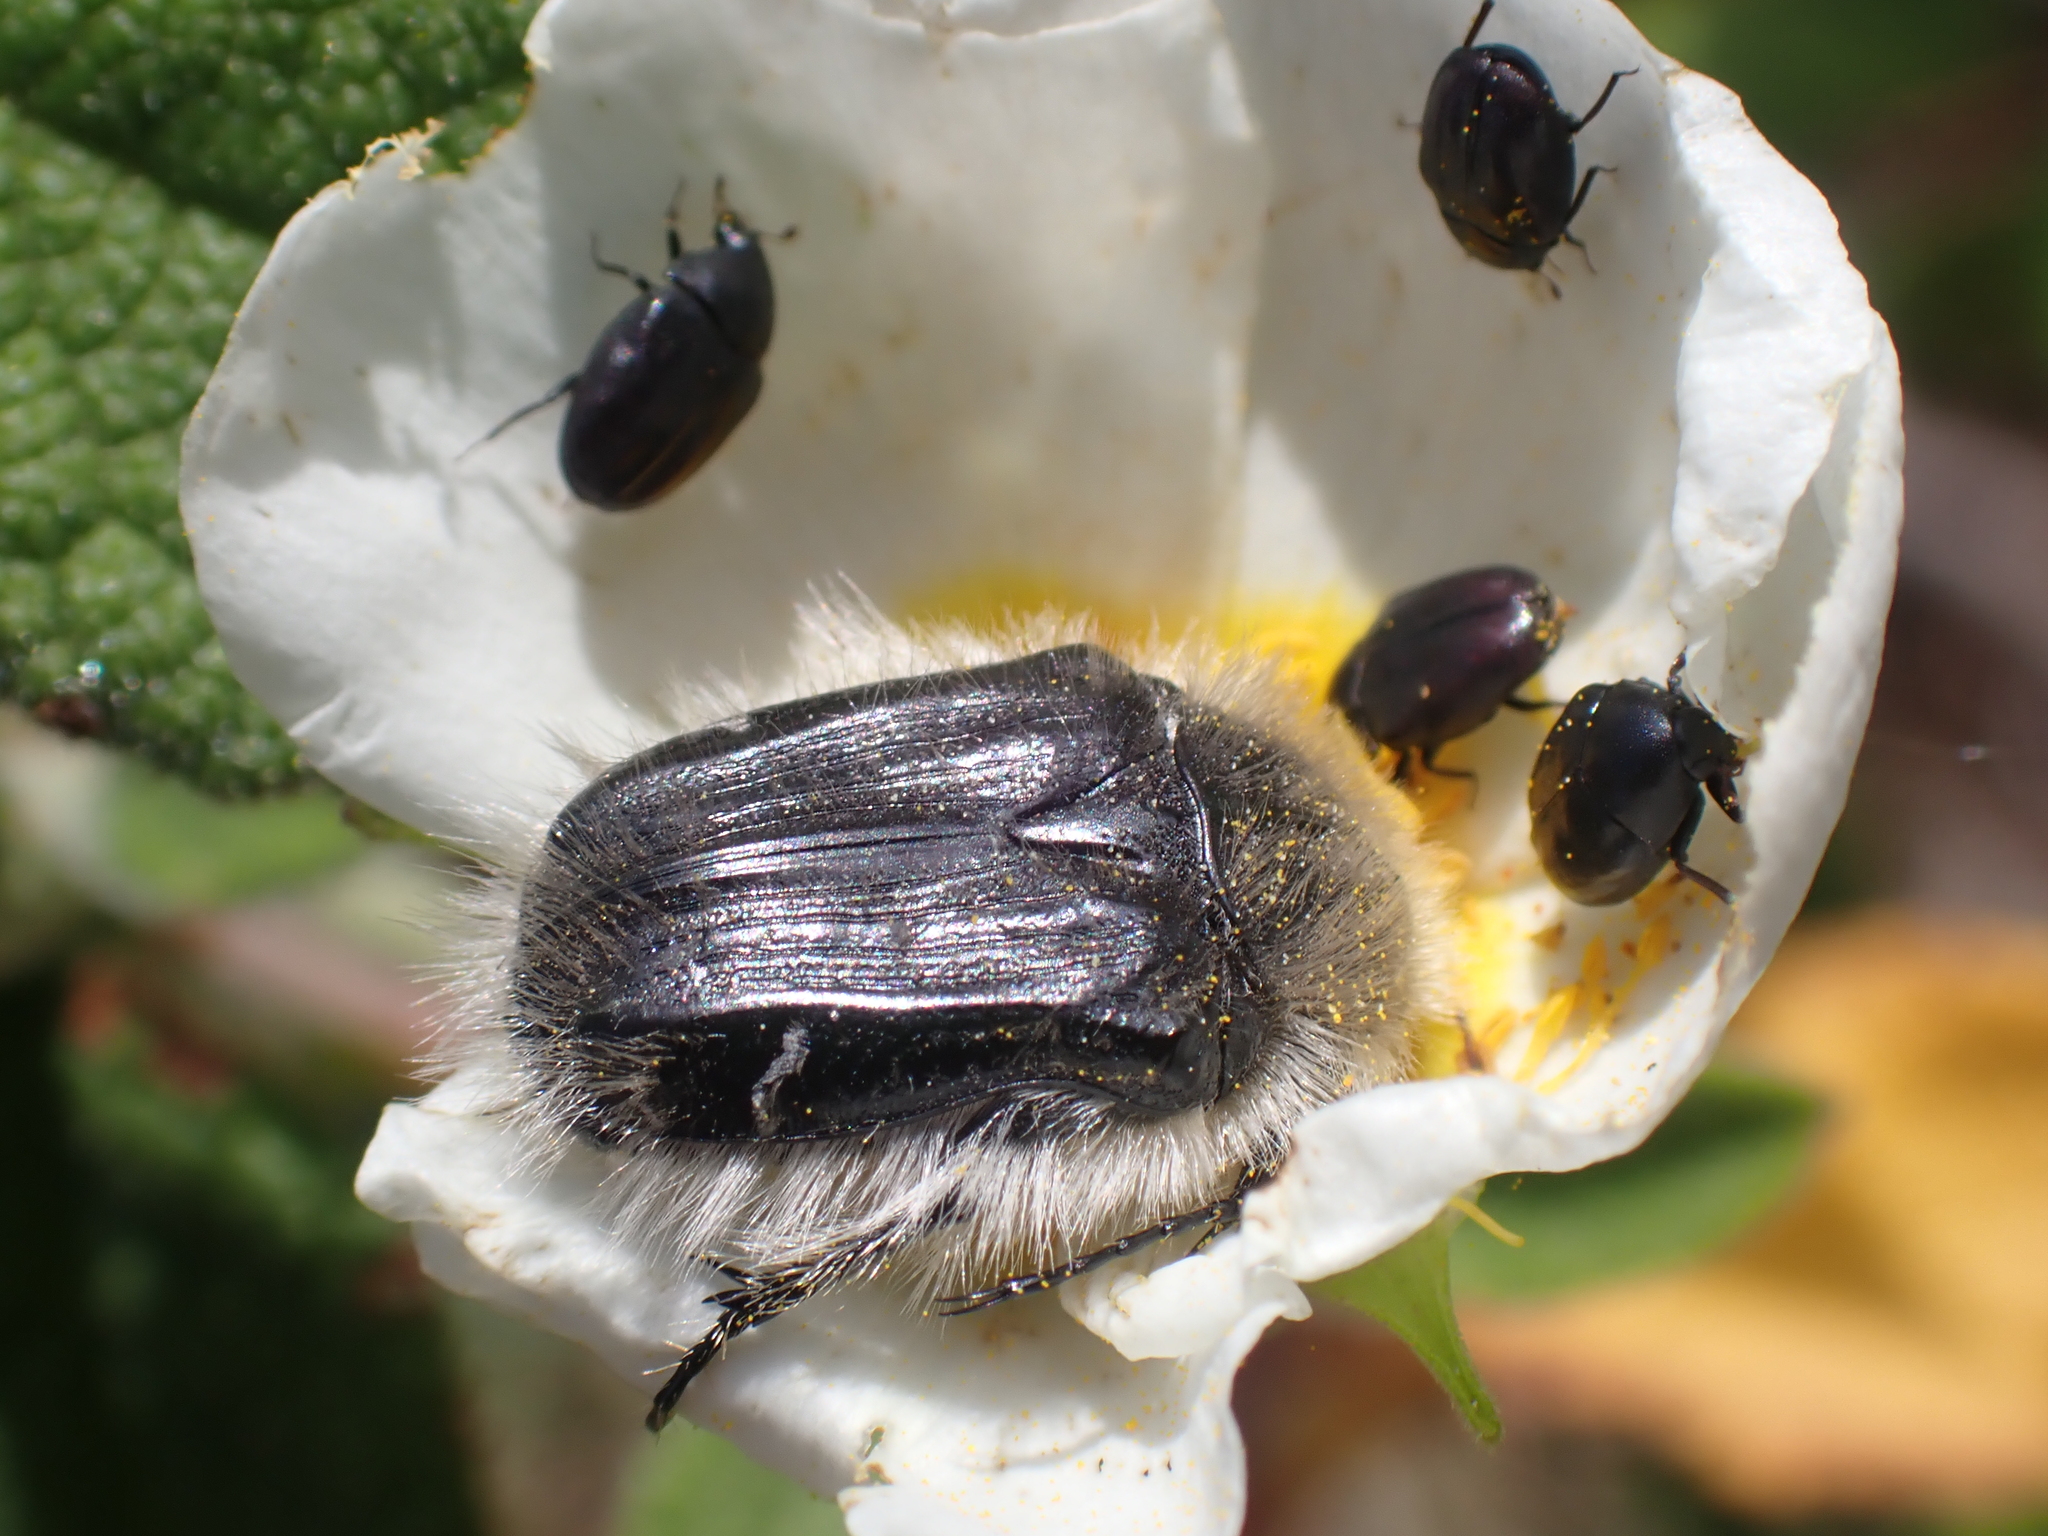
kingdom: Animalia
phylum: Arthropoda
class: Insecta
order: Coleoptera
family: Scarabaeidae
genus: Tropinota
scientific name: Tropinota squalida
